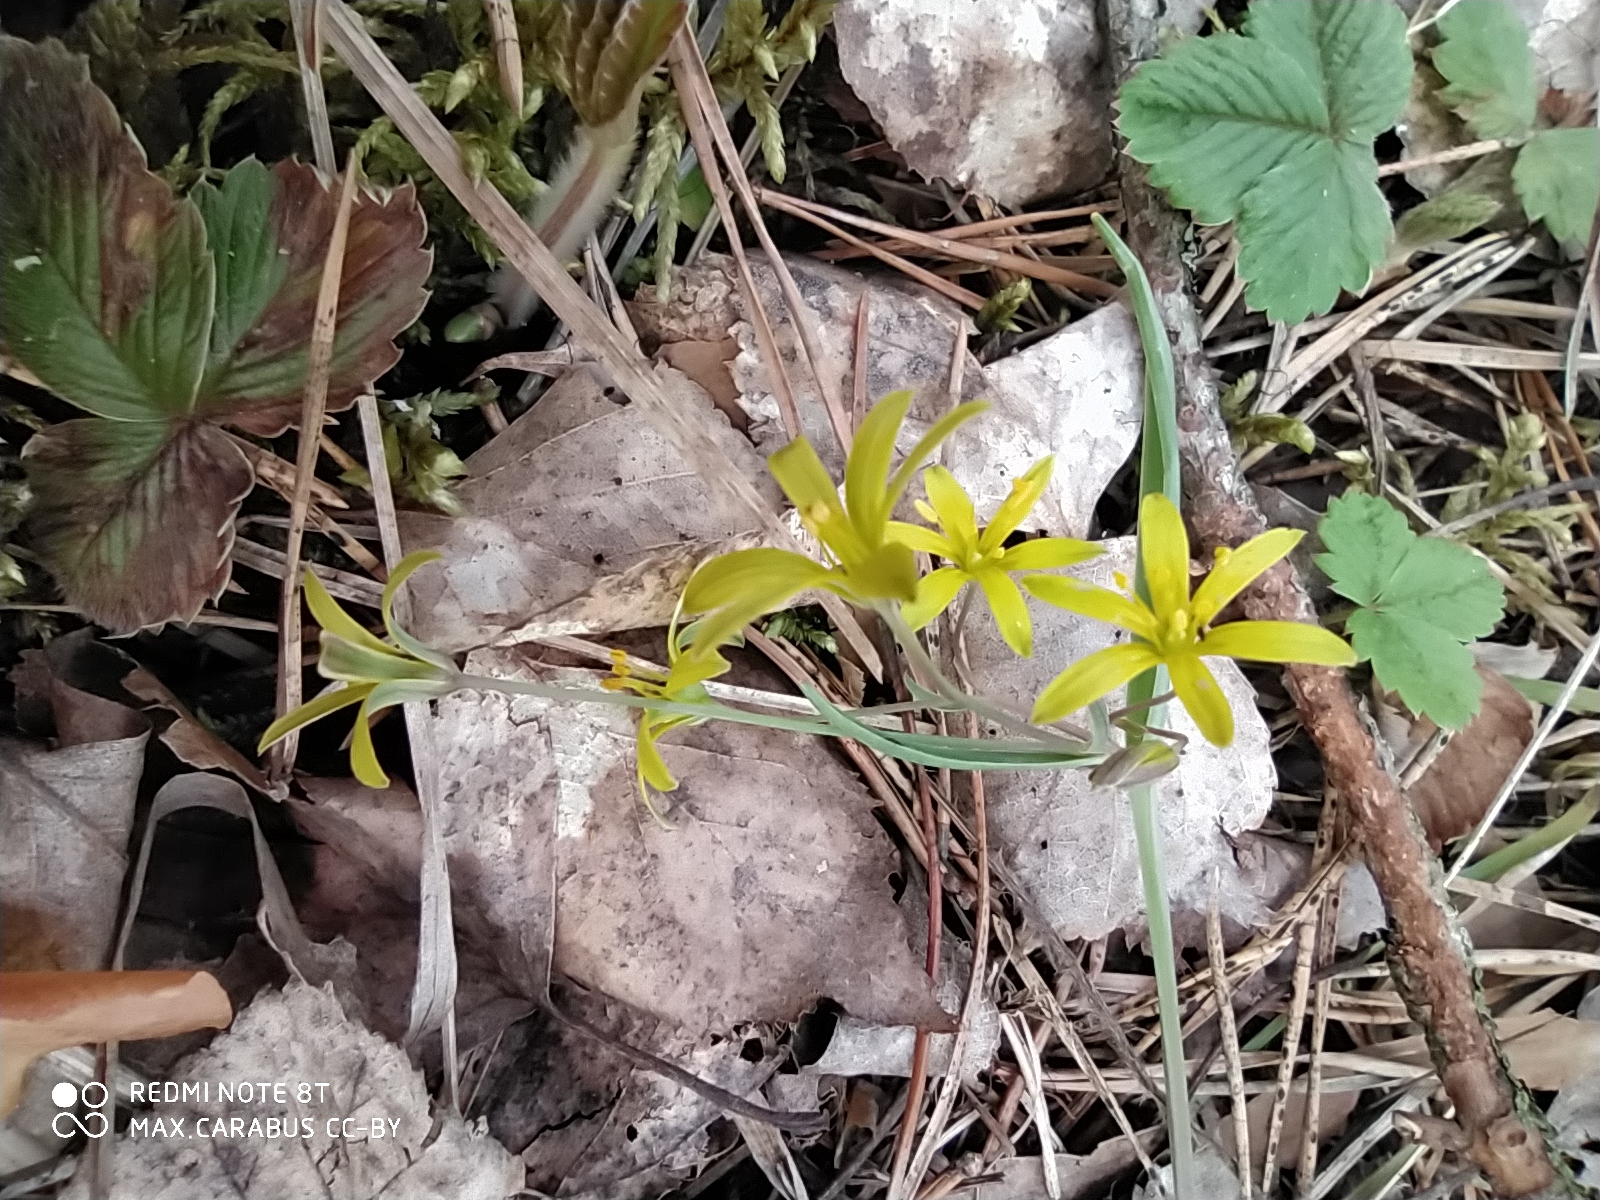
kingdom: Plantae
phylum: Tracheophyta
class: Liliopsida
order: Liliales
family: Liliaceae
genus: Gagea
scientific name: Gagea fragifera
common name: Lily
